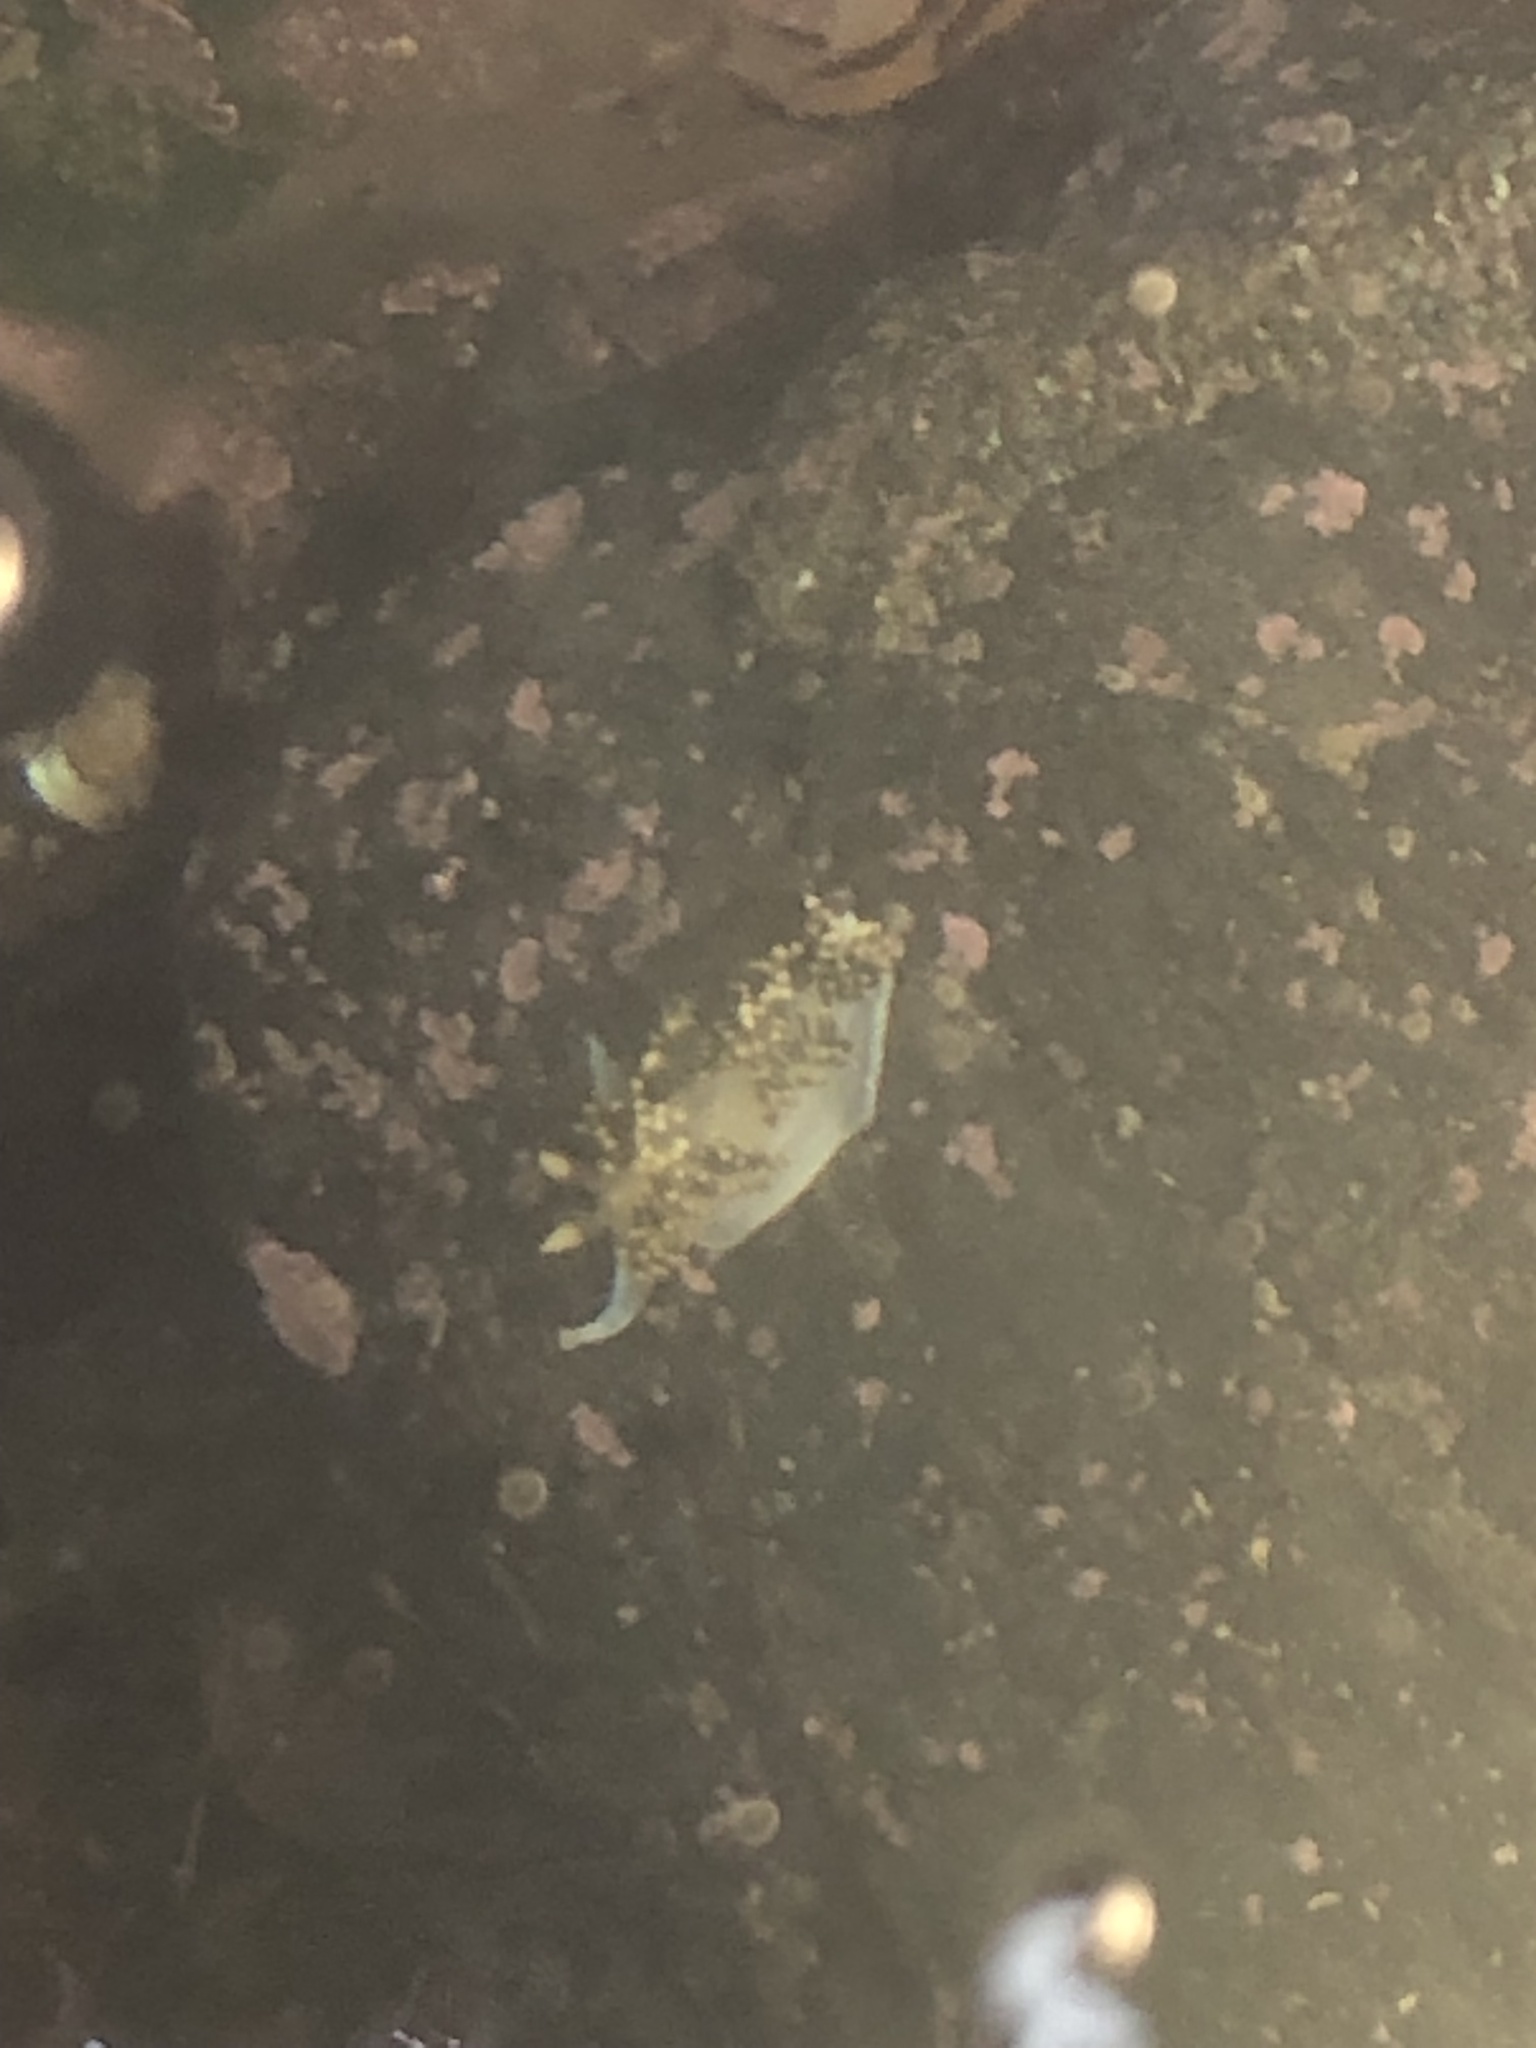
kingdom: Animalia
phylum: Mollusca
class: Gastropoda
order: Nudibranchia
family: Facelinidae
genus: Phidiana
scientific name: Phidiana hiltoni
